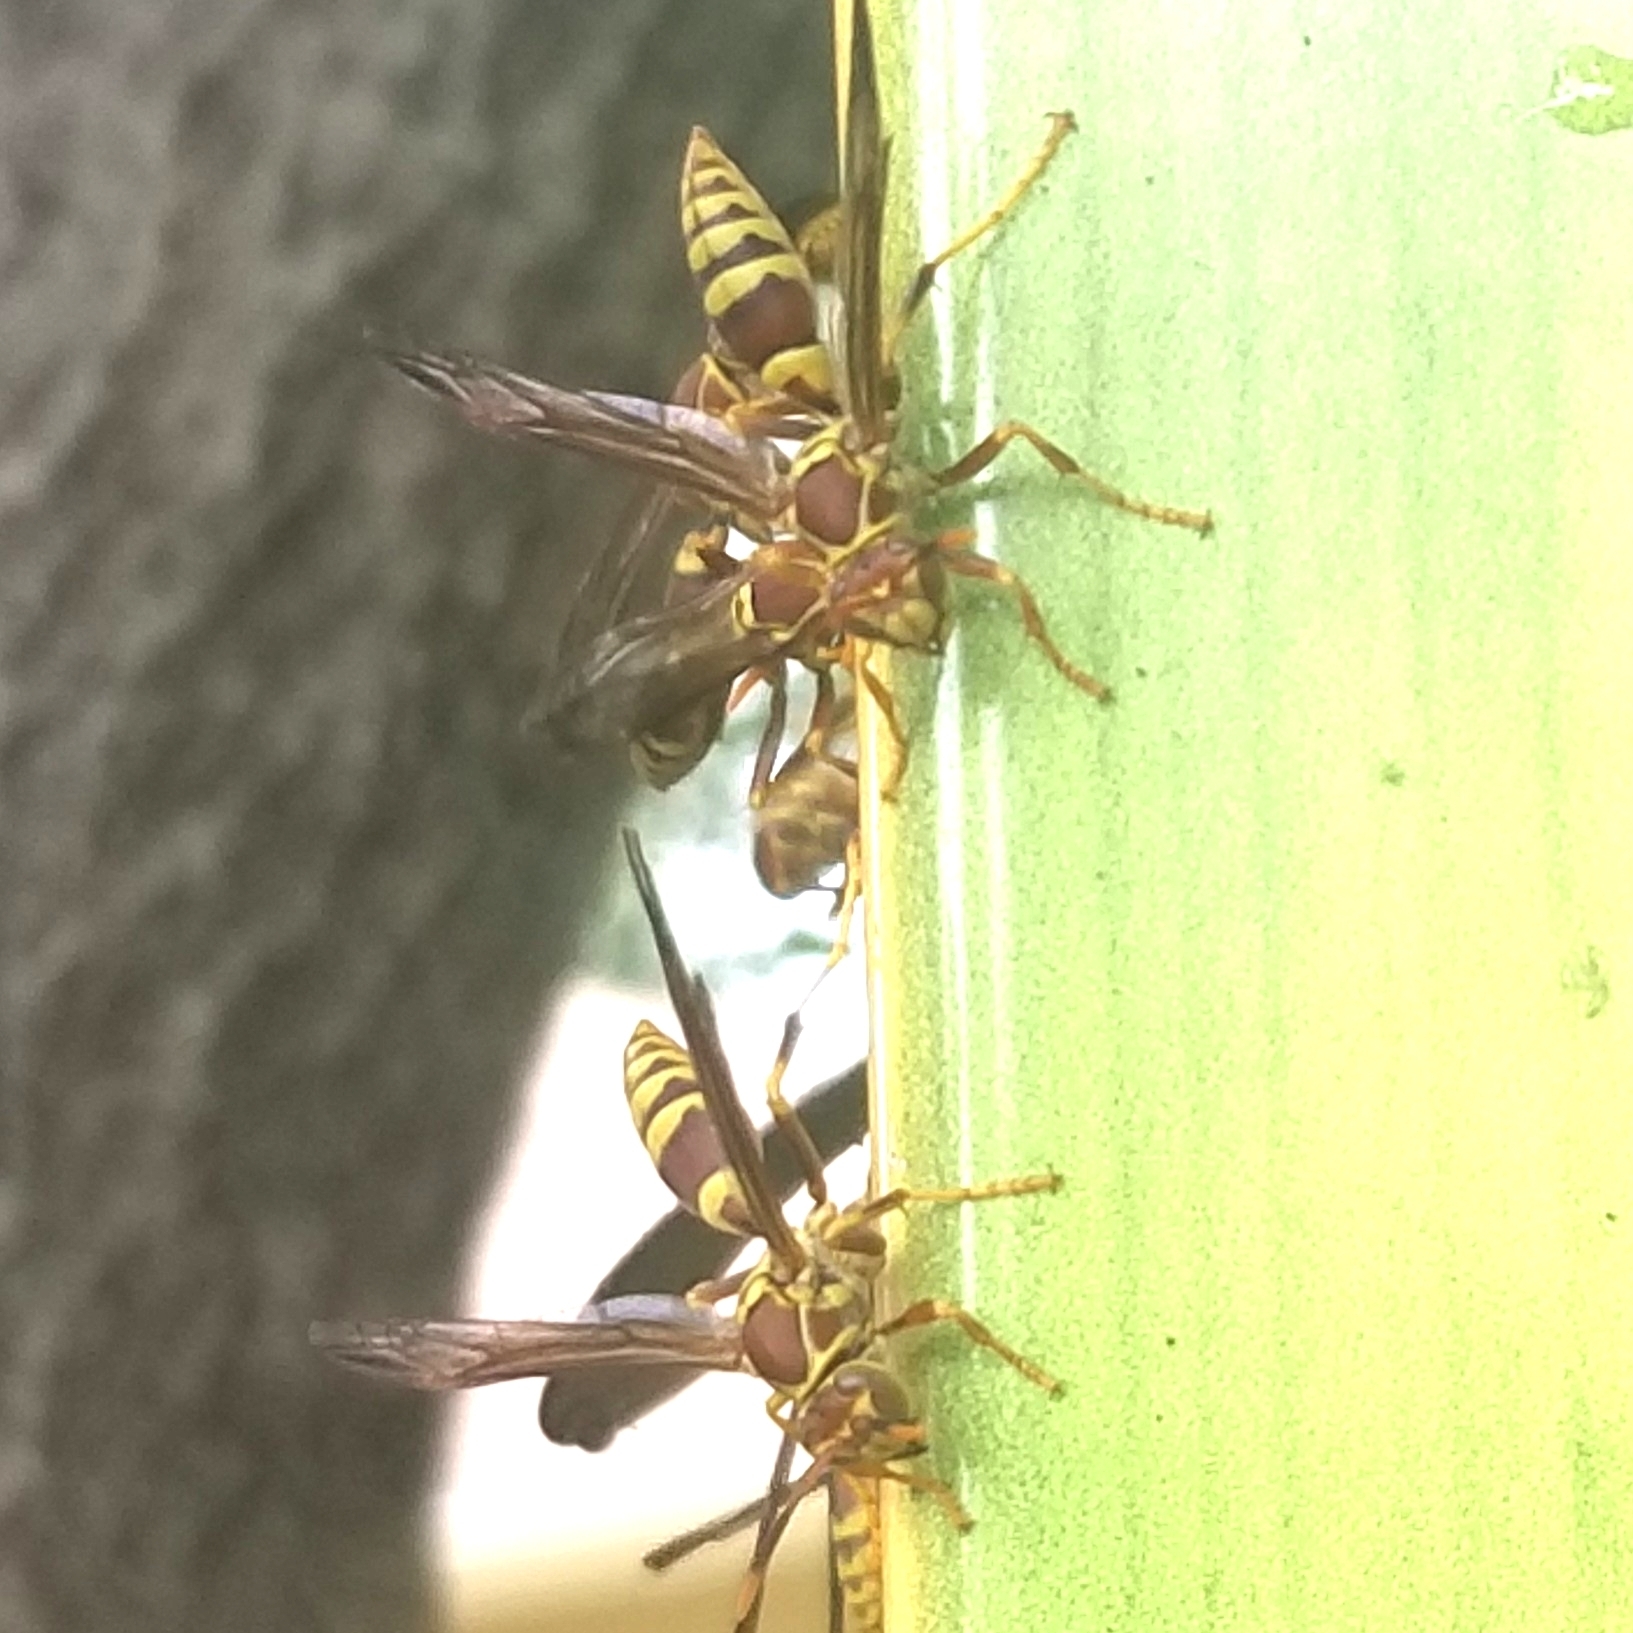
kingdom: Animalia
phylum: Arthropoda
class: Insecta
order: Hymenoptera
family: Eumenidae
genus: Polistes
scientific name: Polistes exclamans
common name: Paper wasp
